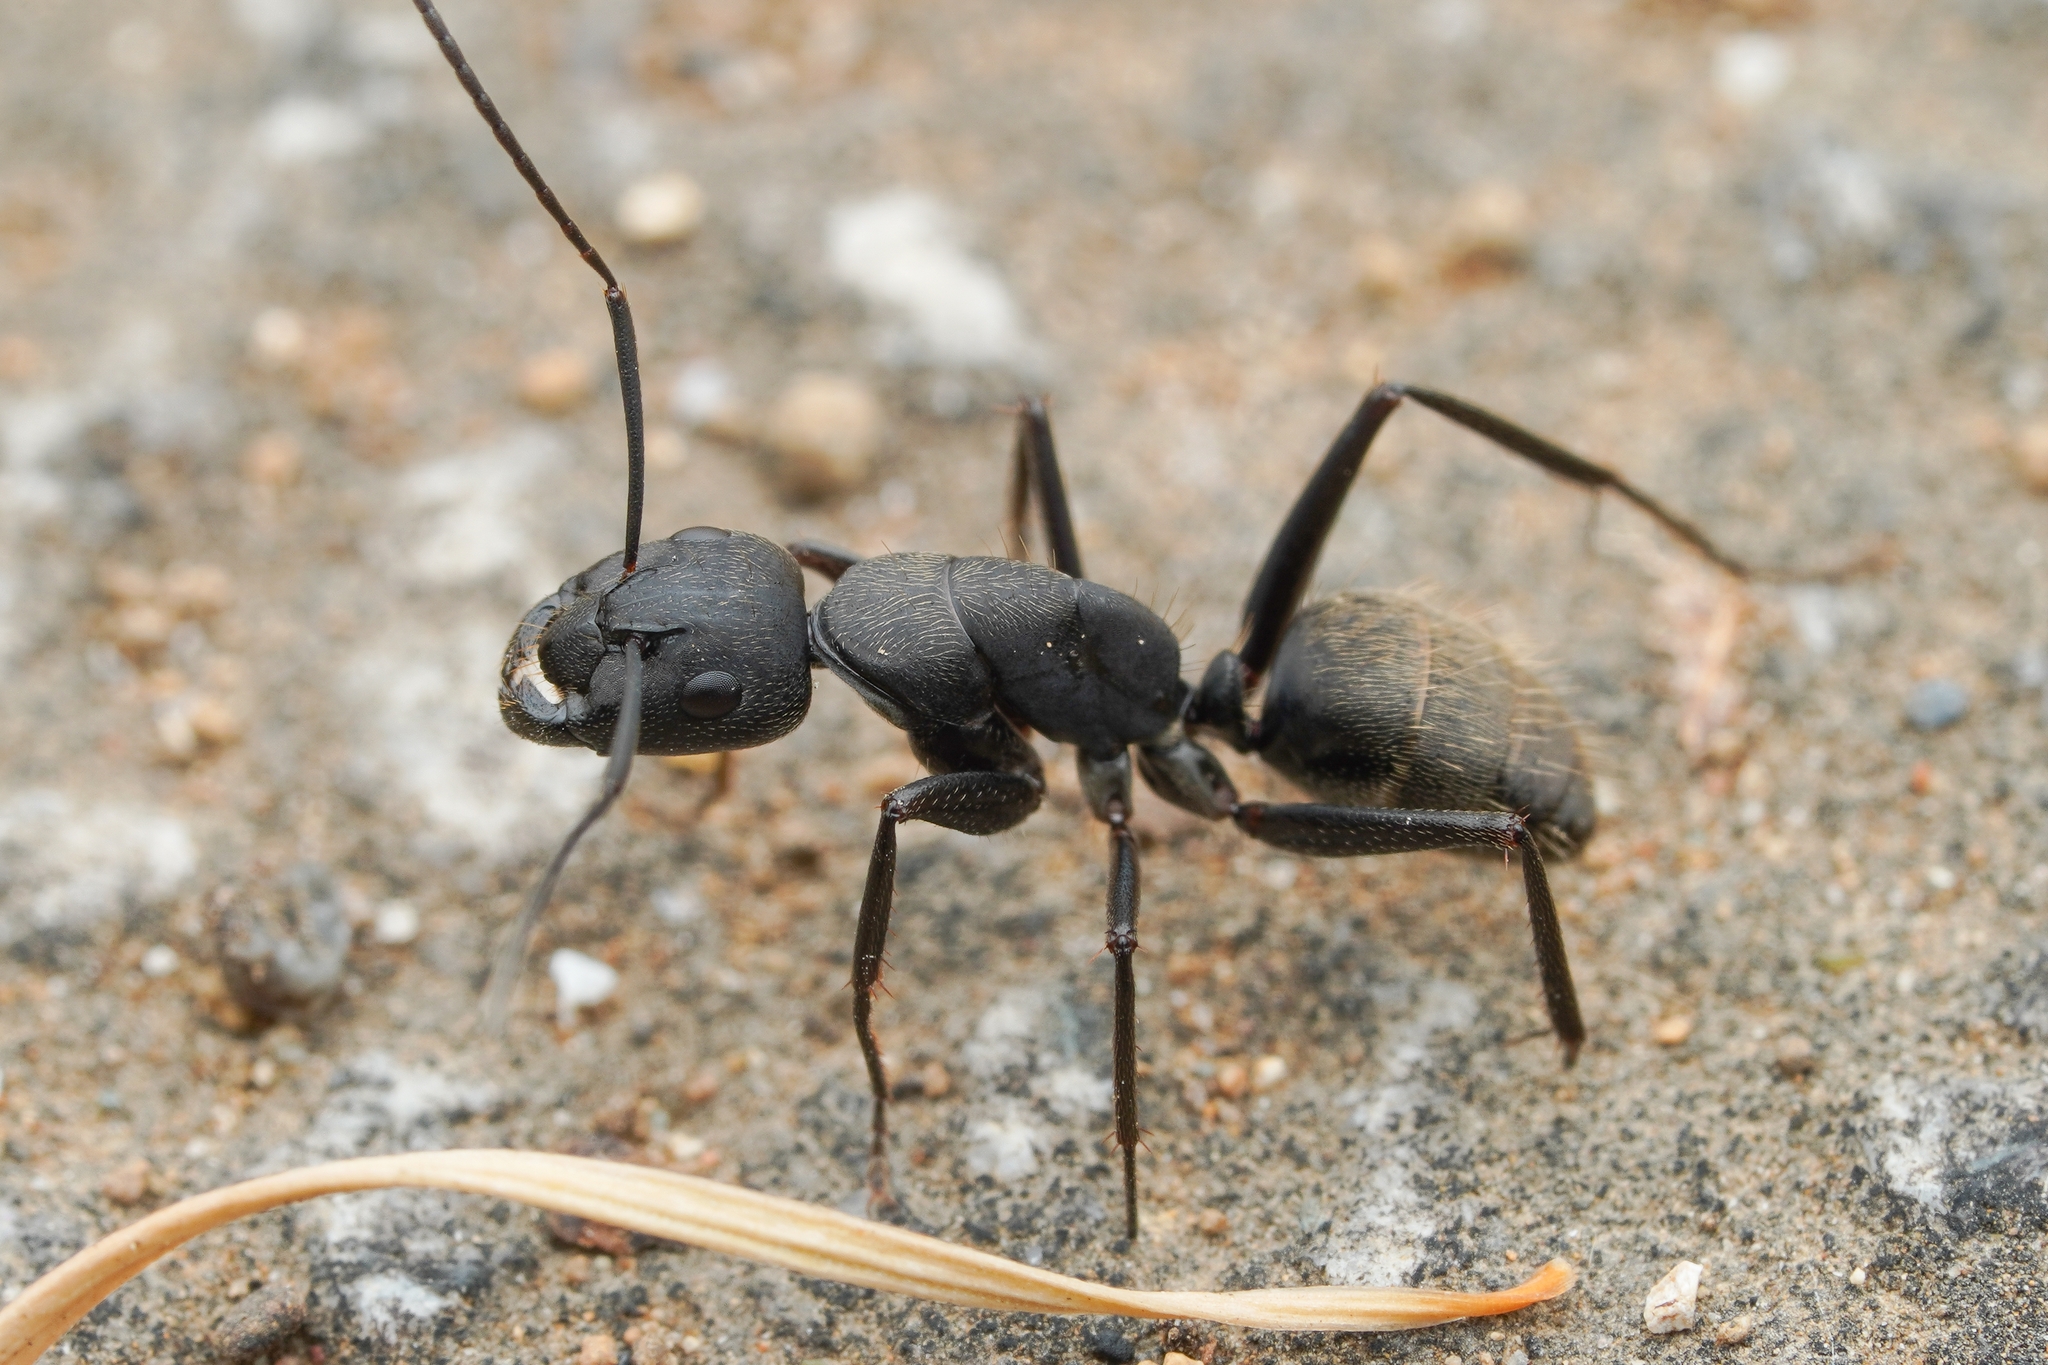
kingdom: Animalia
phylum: Arthropoda
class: Insecta
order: Hymenoptera
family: Formicidae
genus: Camponotus
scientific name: Camponotus japonicus
